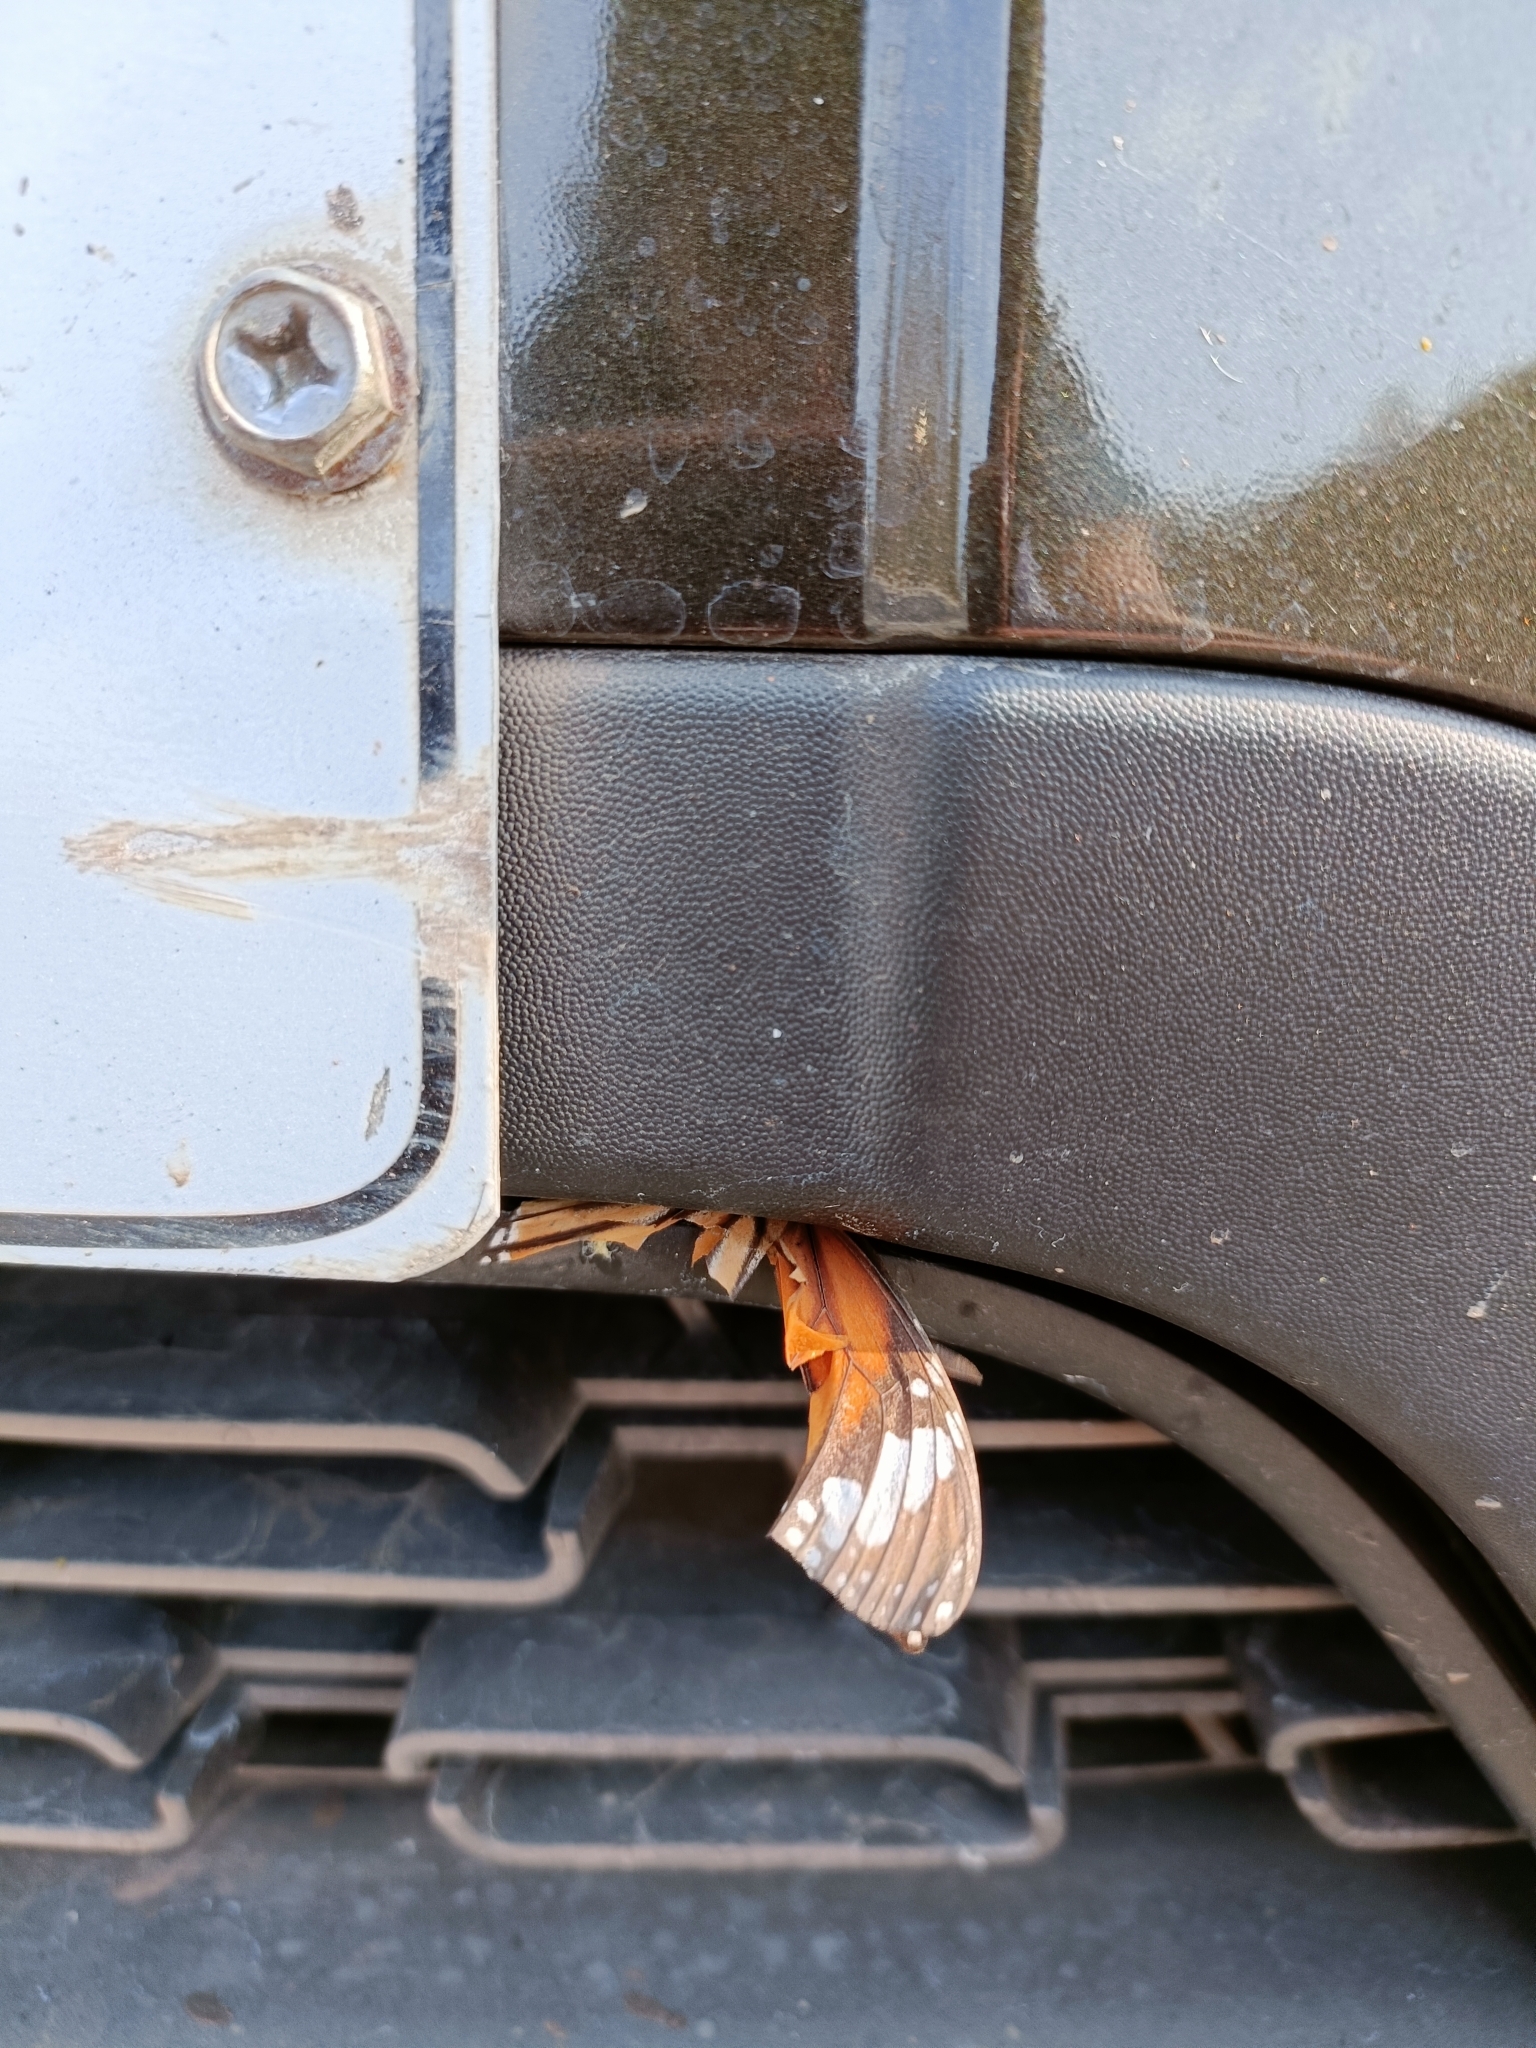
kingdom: Animalia
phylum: Arthropoda
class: Insecta
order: Lepidoptera
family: Nymphalidae
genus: Danaus
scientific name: Danaus genutia
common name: Common tiger butterfly
